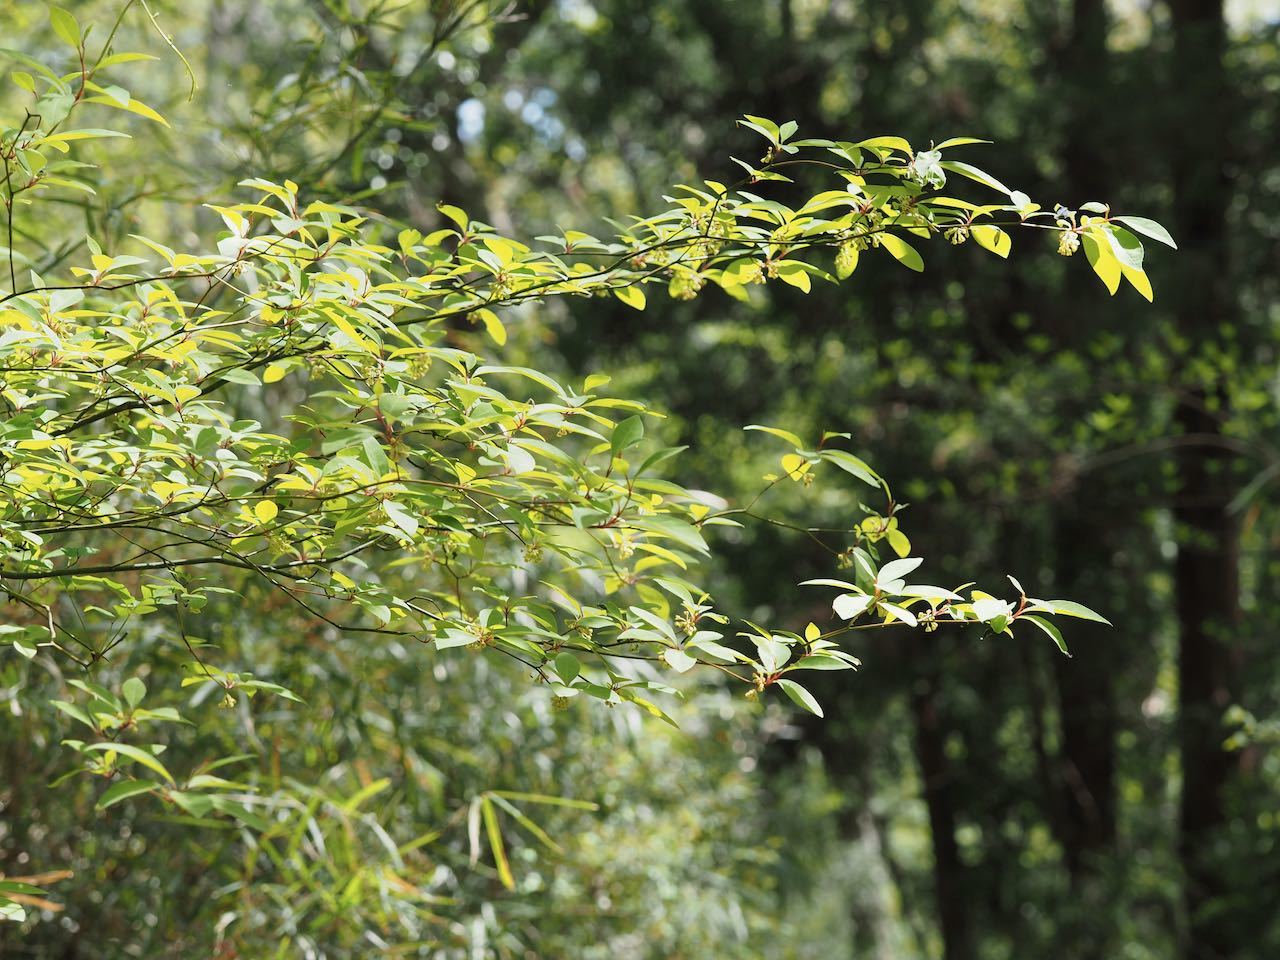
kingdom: Plantae
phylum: Tracheophyta
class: Magnoliopsida
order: Laurales
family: Lauraceae
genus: Lindera
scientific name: Lindera umbellata
